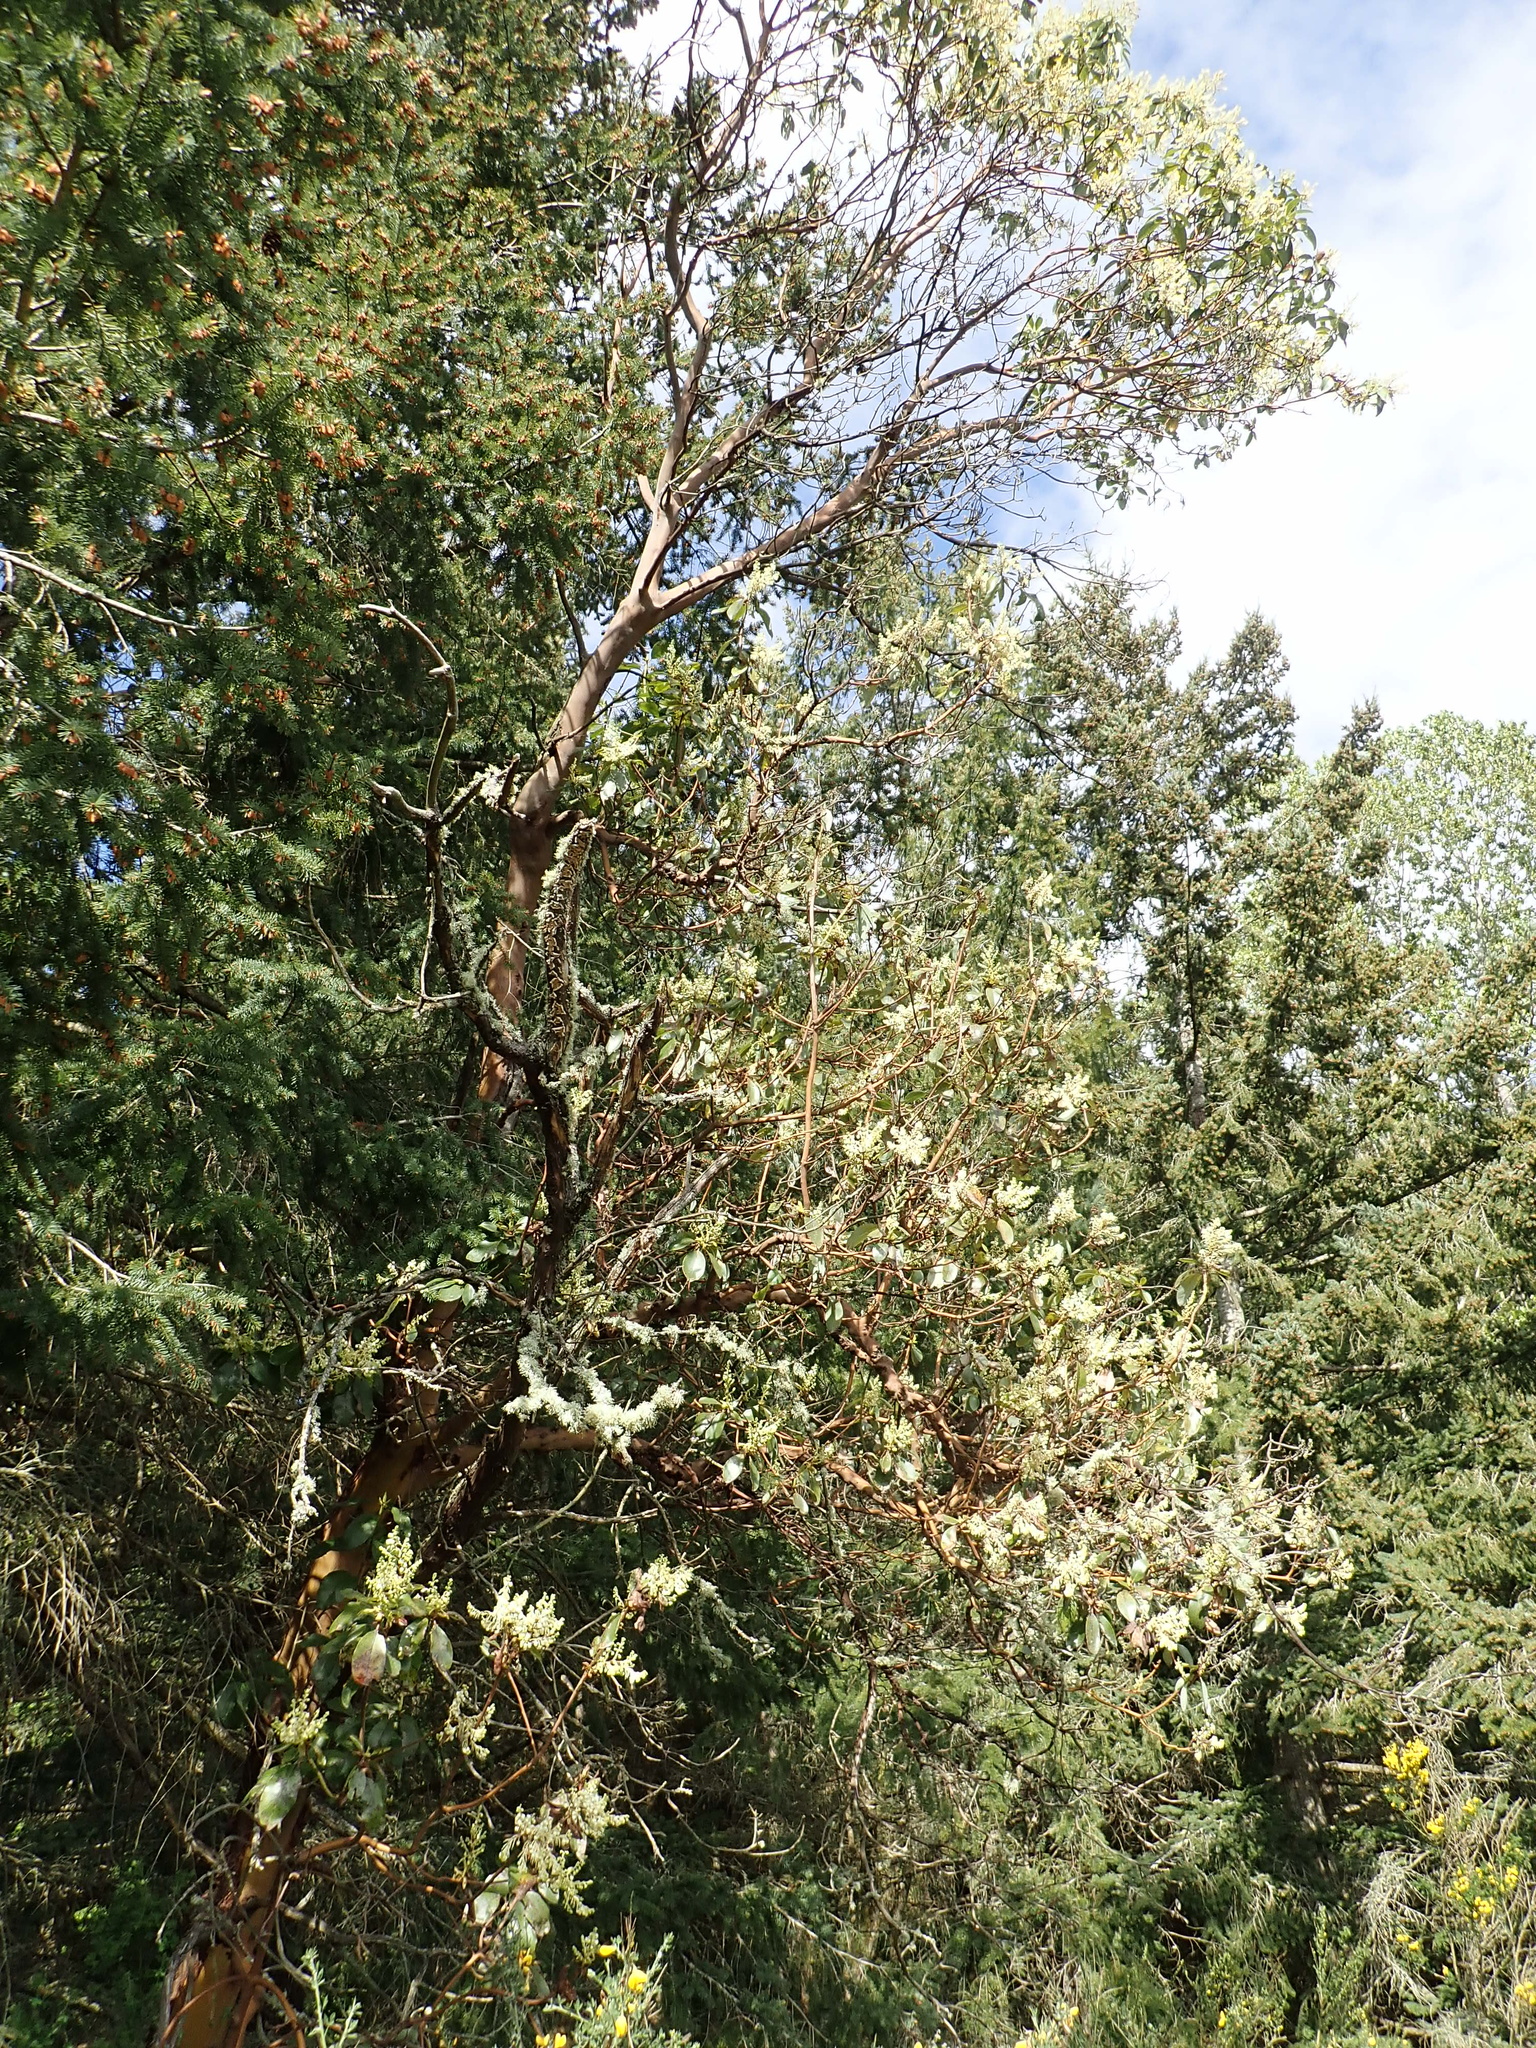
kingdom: Plantae
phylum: Tracheophyta
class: Magnoliopsida
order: Ericales
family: Ericaceae
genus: Arbutus
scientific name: Arbutus menziesii
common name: Pacific madrone
